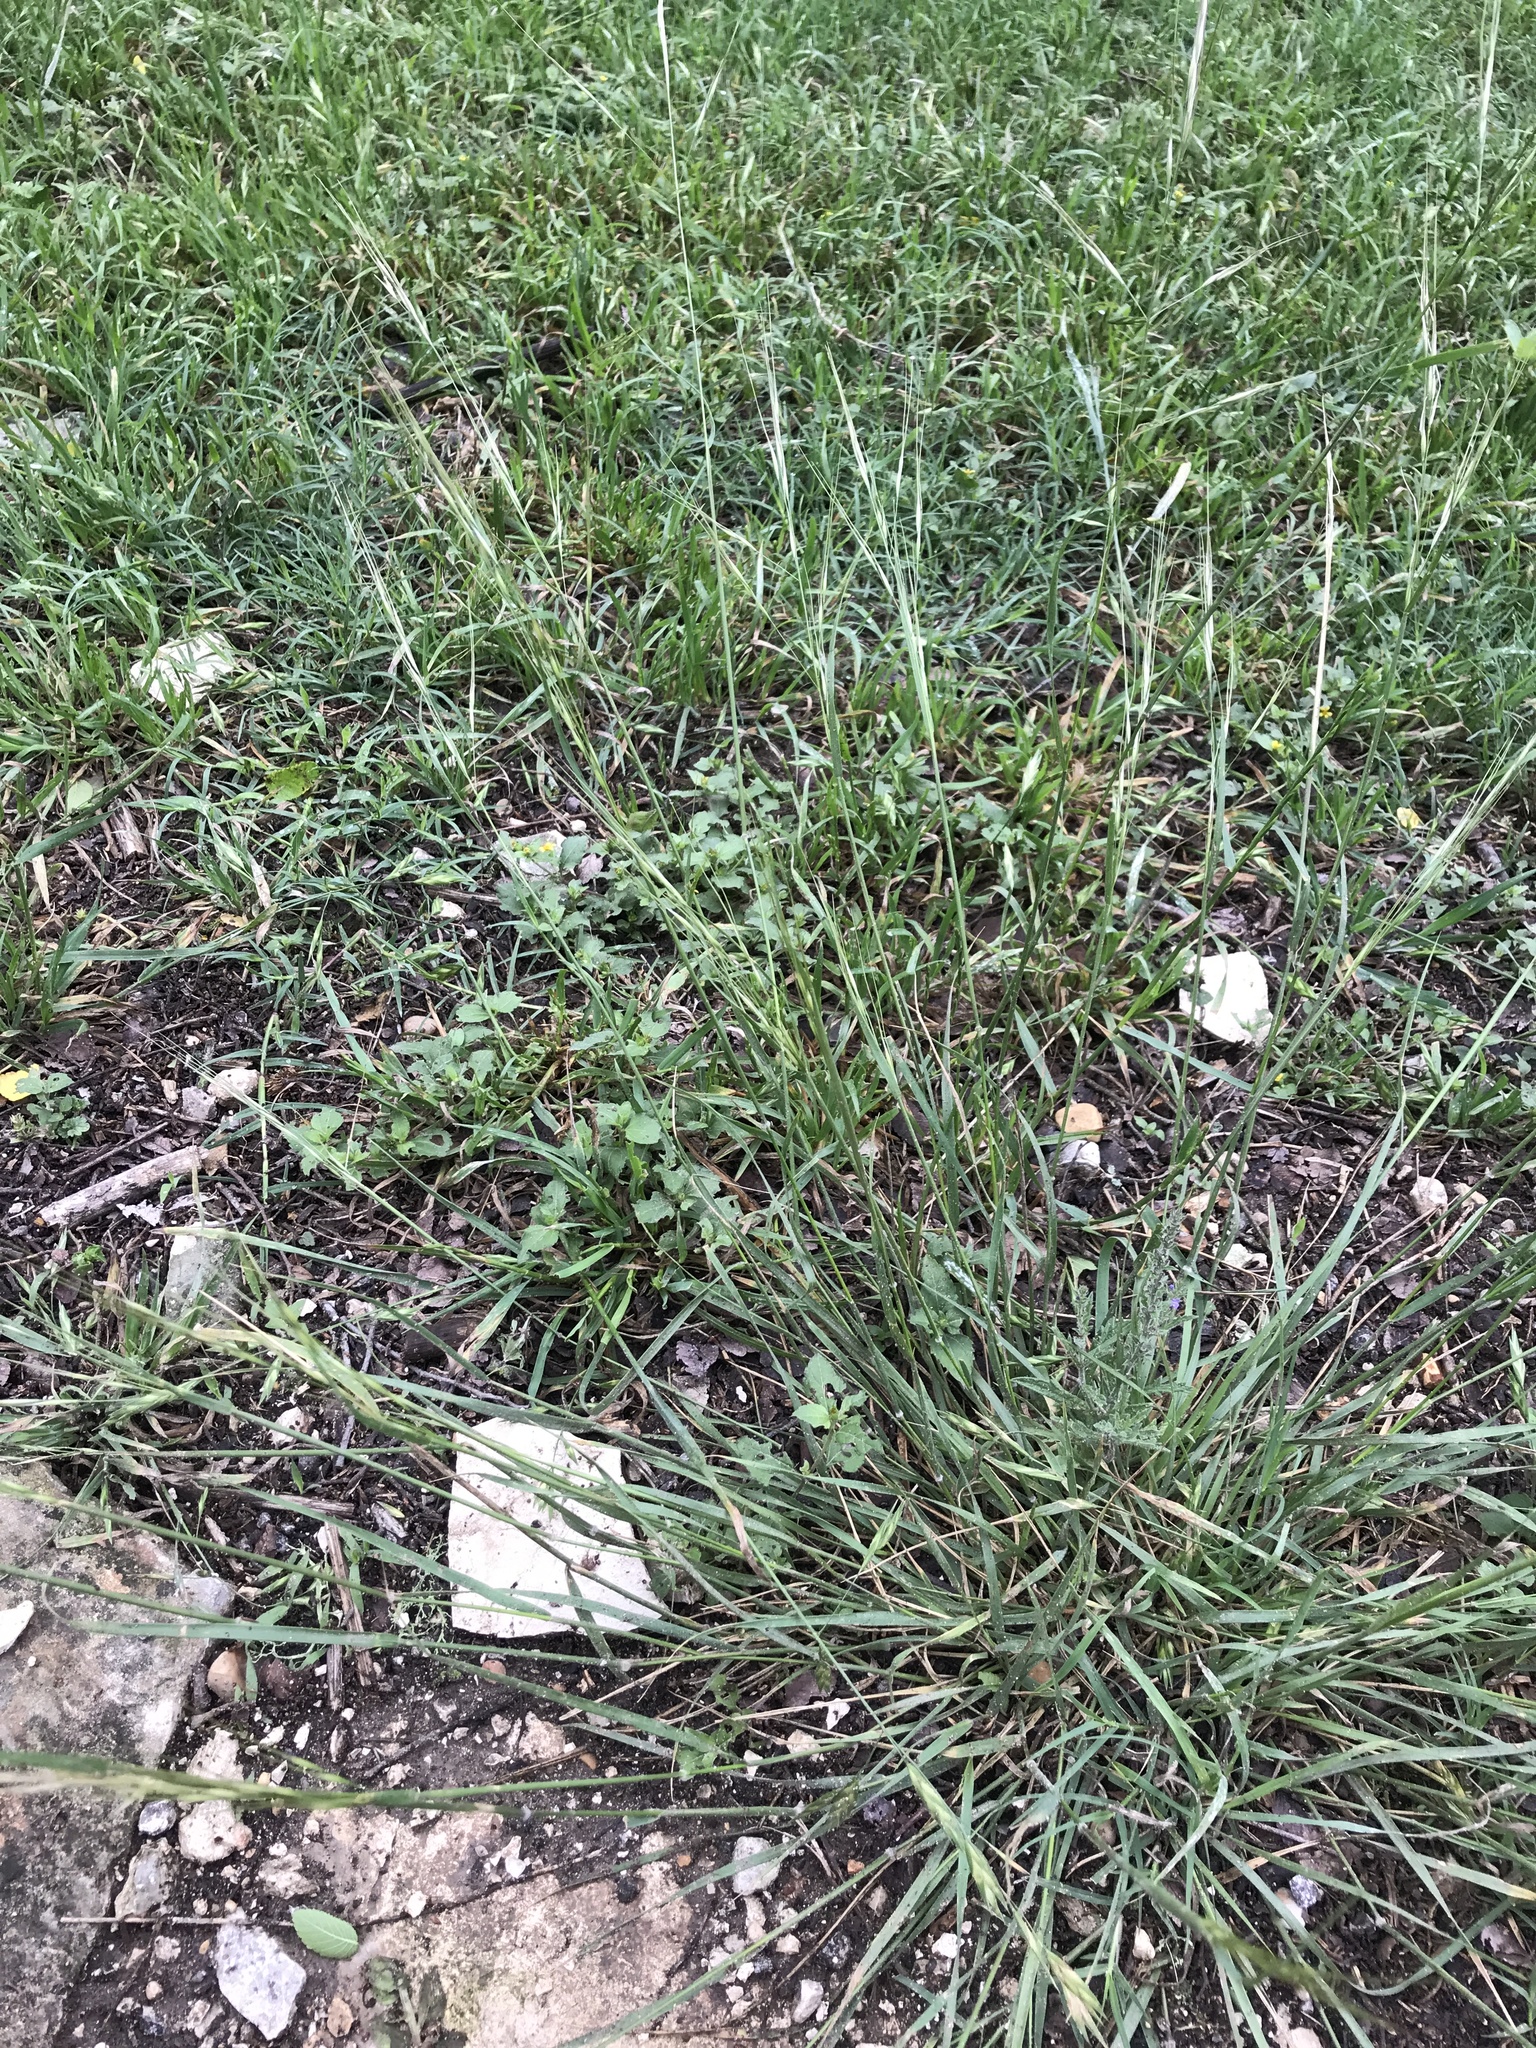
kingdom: Plantae
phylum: Tracheophyta
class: Liliopsida
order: Poales
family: Poaceae
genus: Nassella
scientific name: Nassella leucotricha
